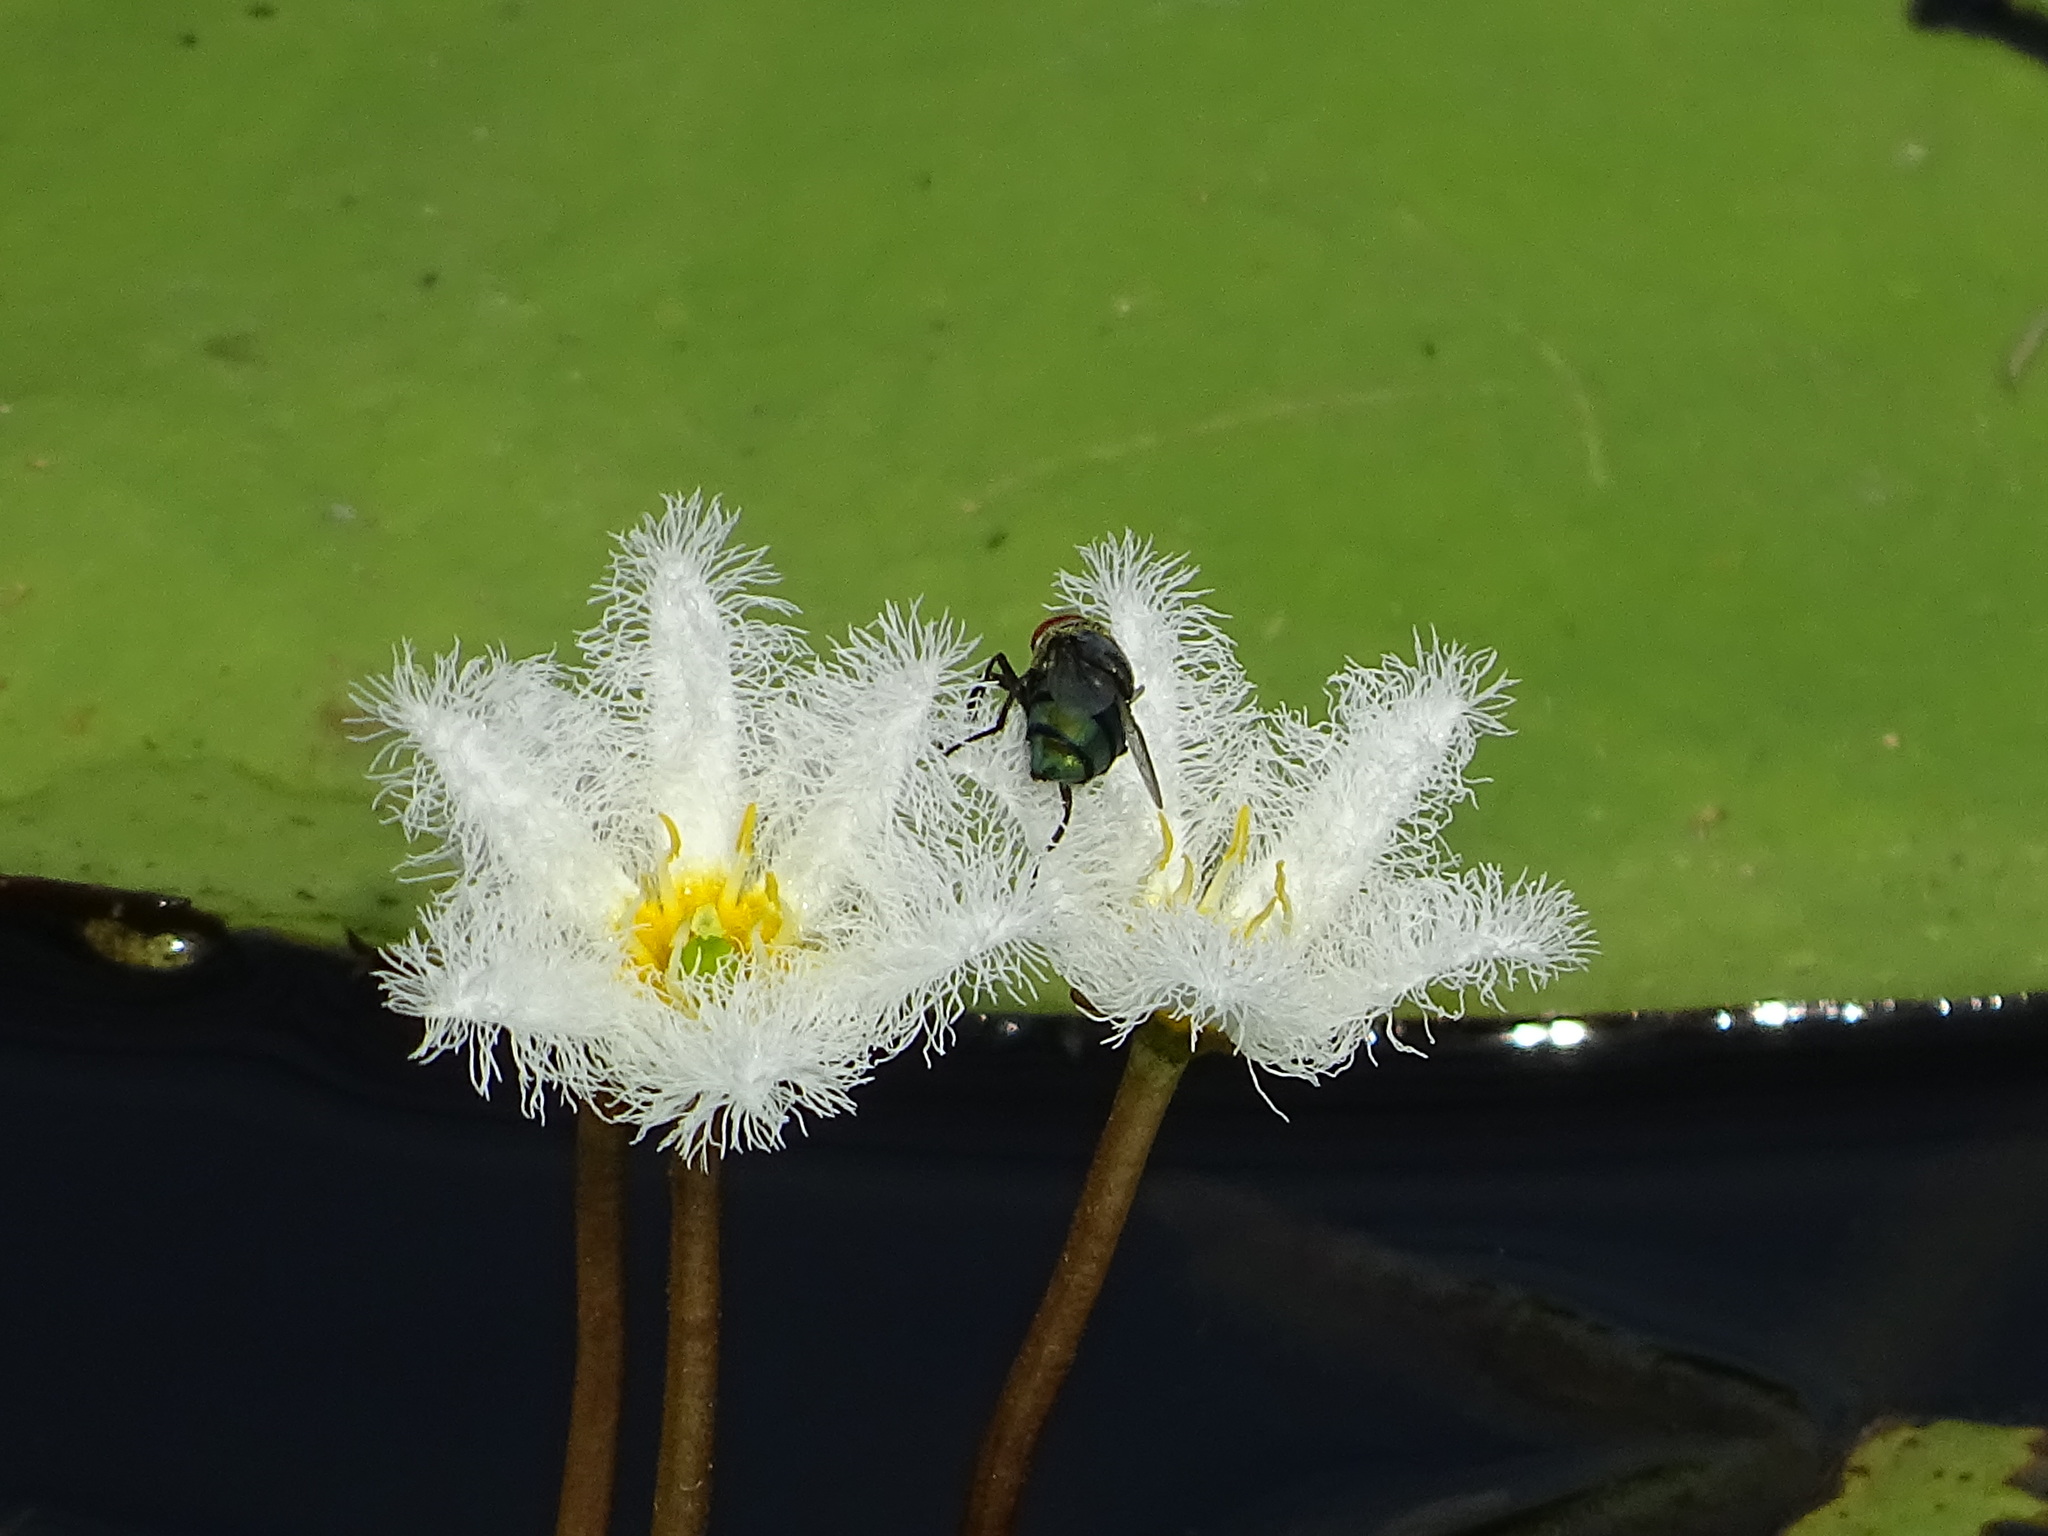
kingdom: Plantae
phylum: Tracheophyta
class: Magnoliopsida
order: Asterales
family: Menyanthaceae
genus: Nymphoides
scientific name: Nymphoides indica
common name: Water-snowflake
